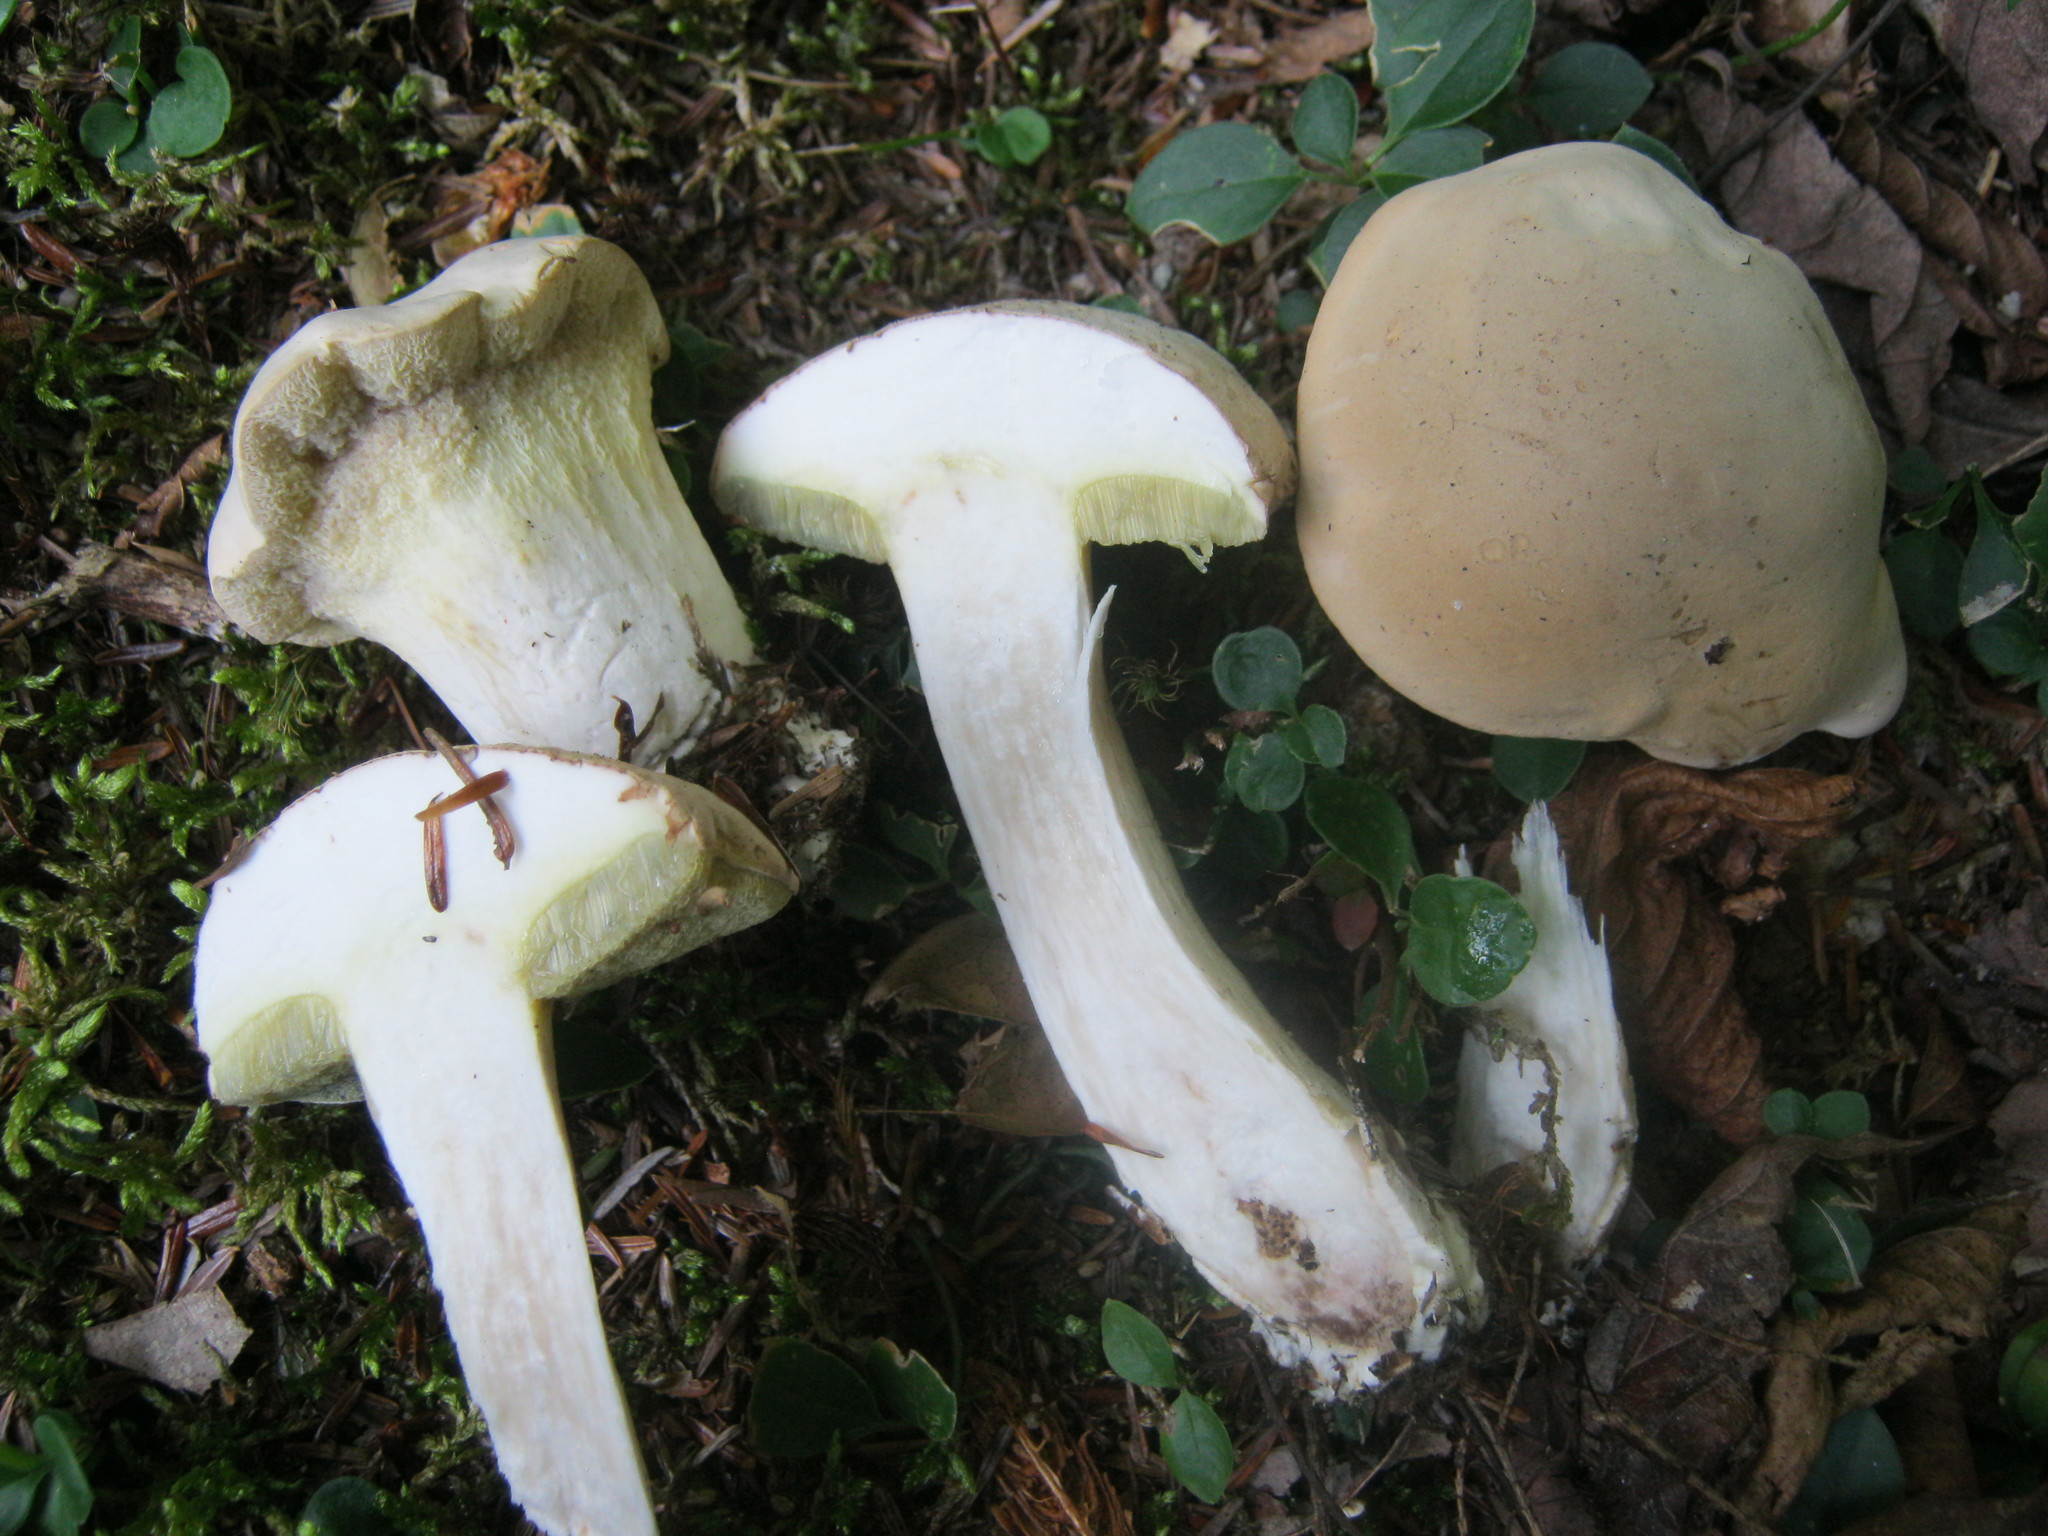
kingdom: Fungi
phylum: Basidiomycota
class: Agaricomycetes
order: Boletales
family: Boletaceae
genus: Imleria
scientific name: Imleria pallida
